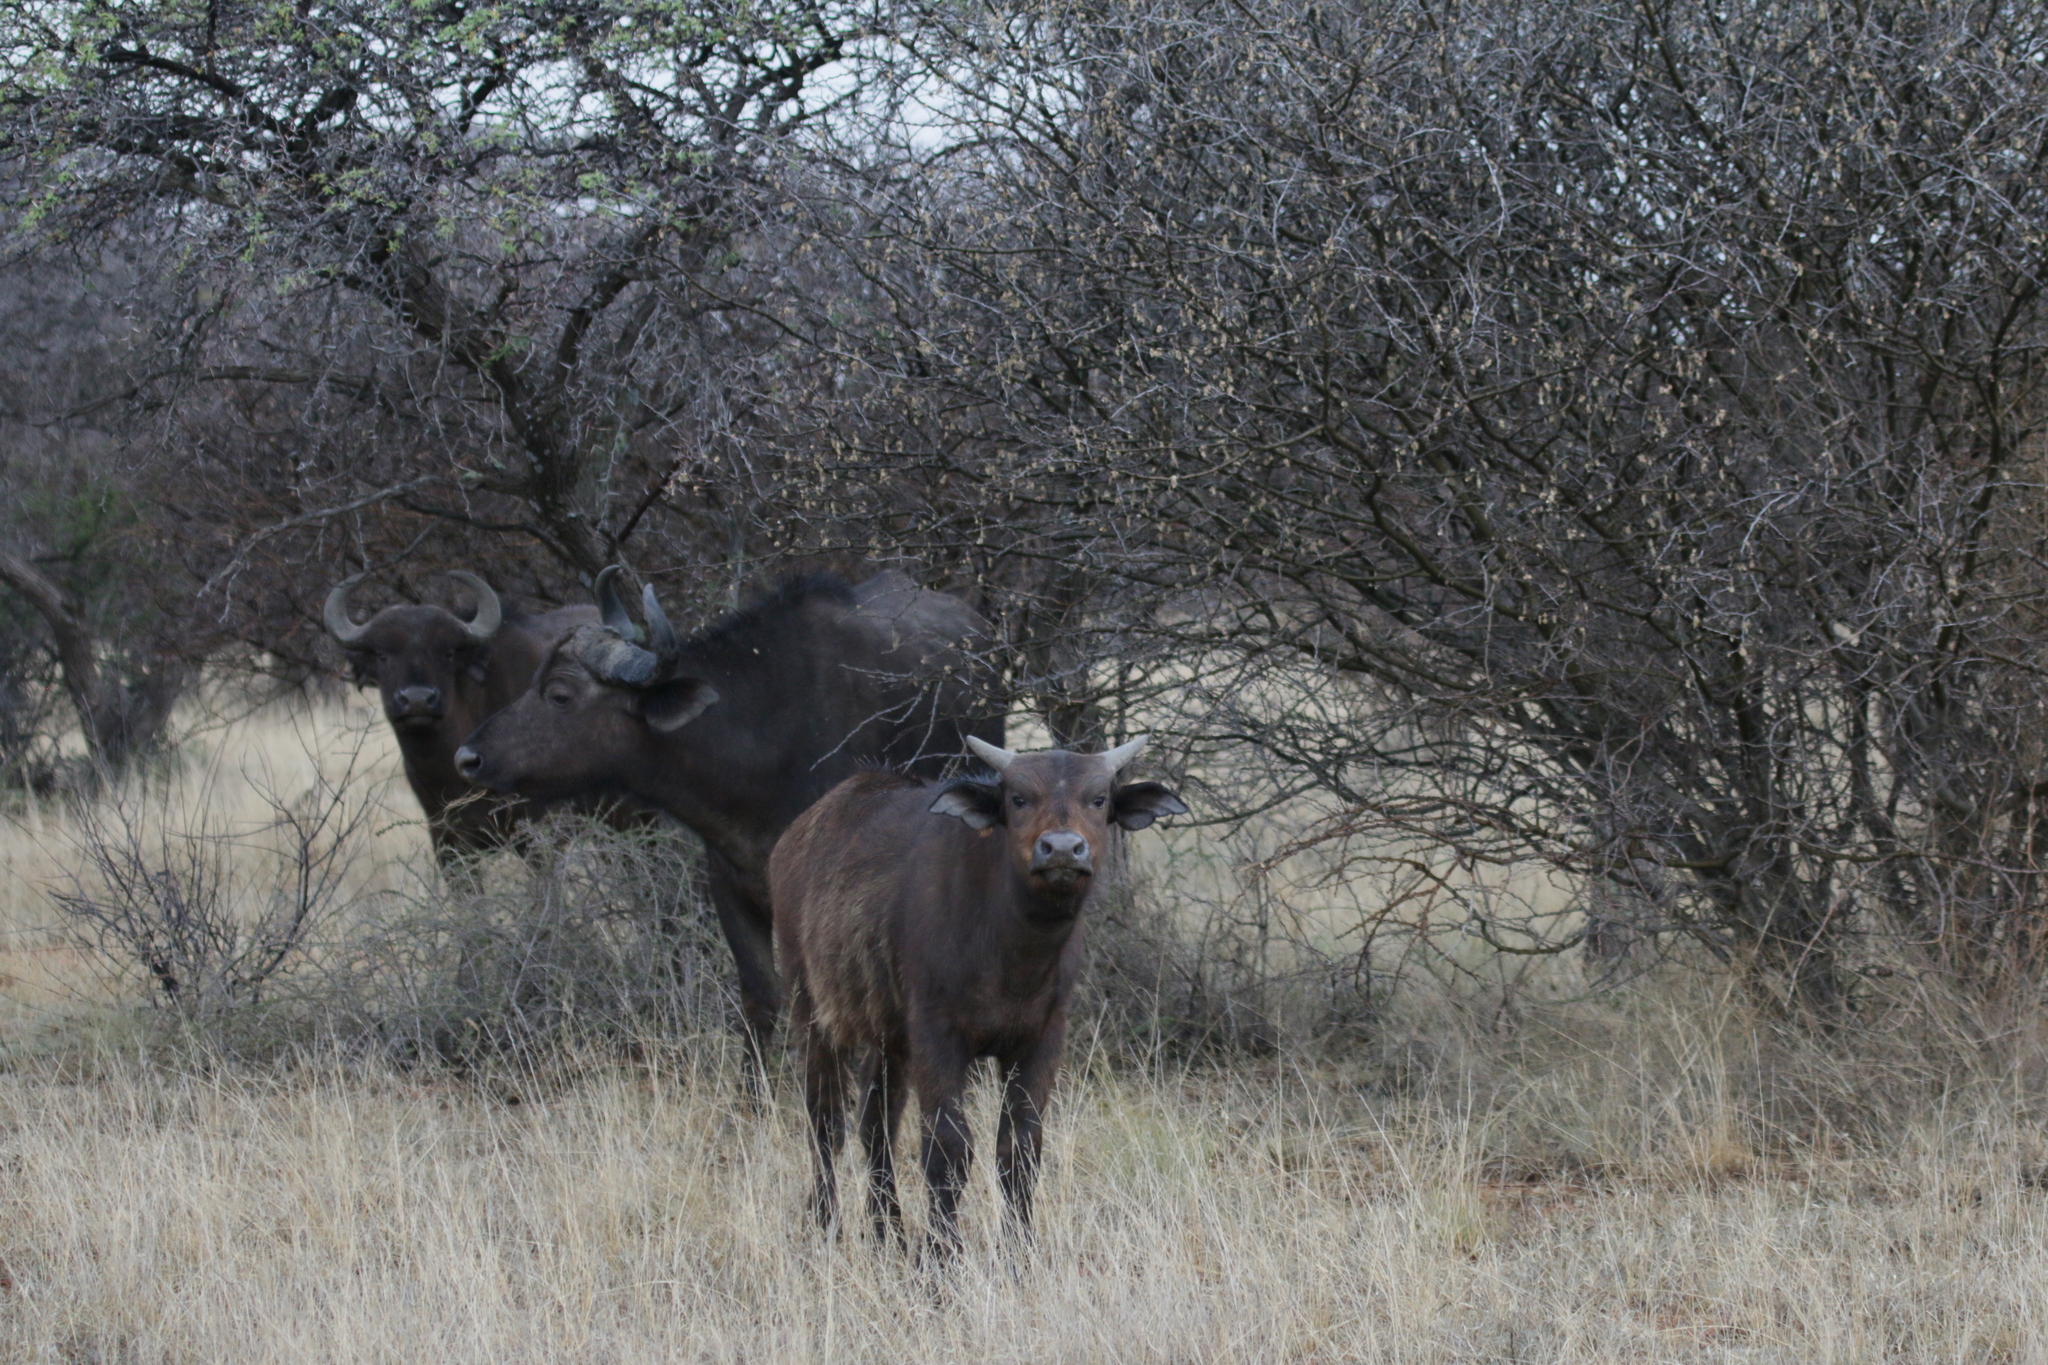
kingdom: Animalia
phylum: Chordata
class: Mammalia
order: Artiodactyla
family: Bovidae
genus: Syncerus
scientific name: Syncerus caffer
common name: African buffalo
